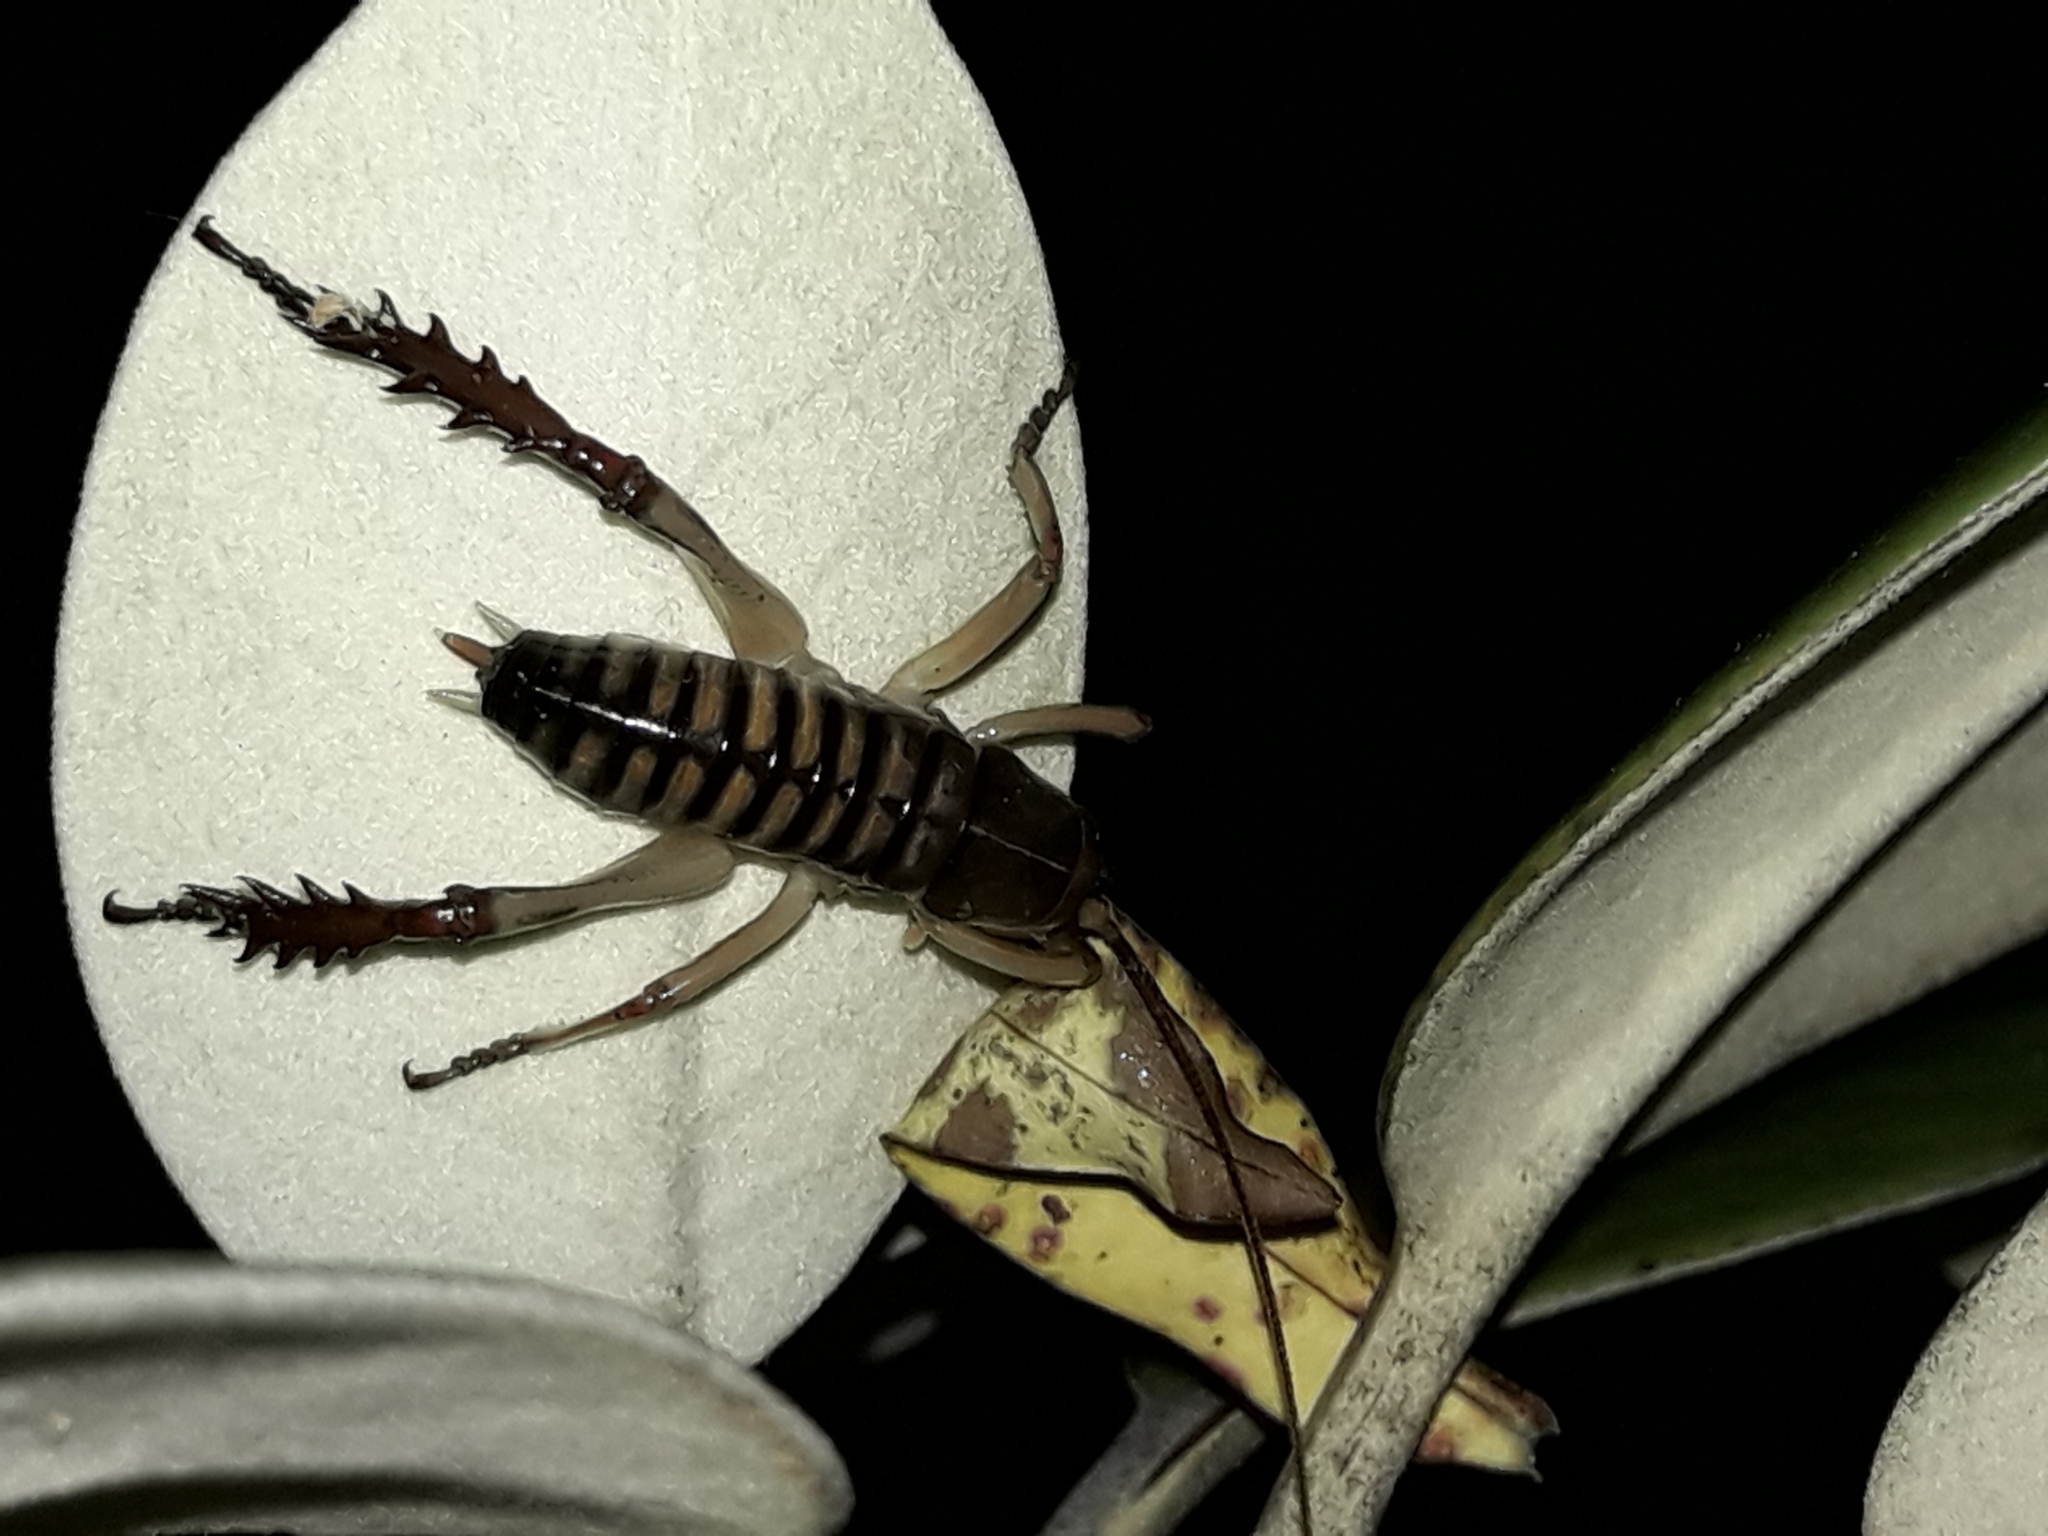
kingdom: Animalia
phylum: Arthropoda
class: Insecta
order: Orthoptera
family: Anostostomatidae
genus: Hemideina
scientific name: Hemideina crassidens
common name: Wellington tree weta
